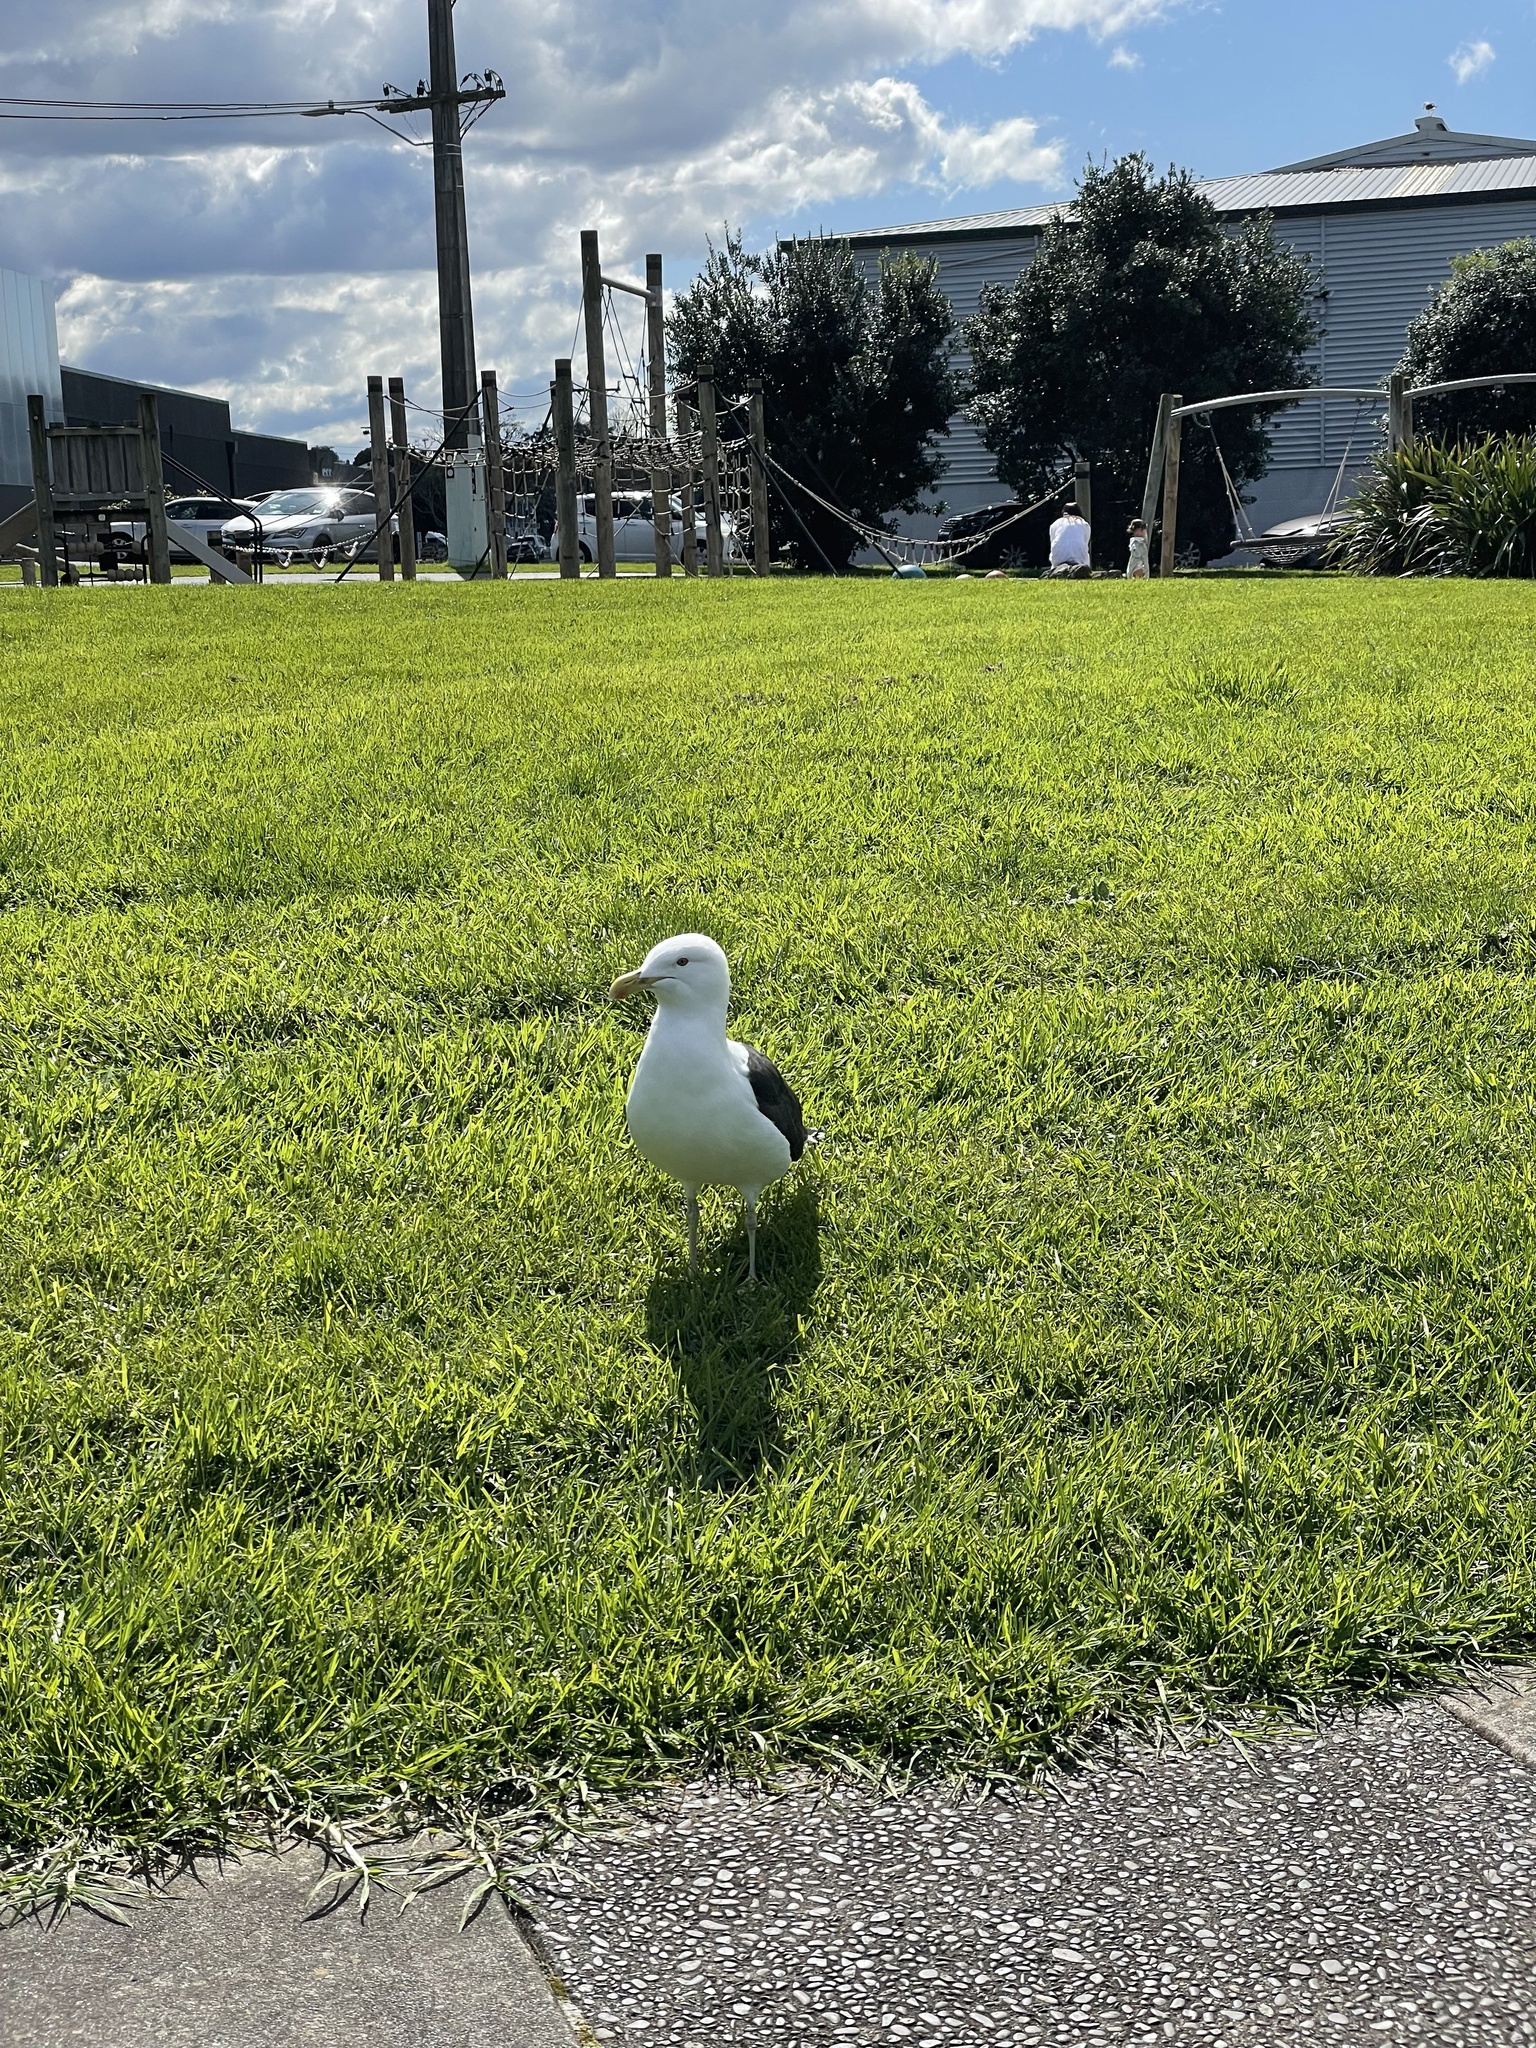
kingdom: Animalia
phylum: Chordata
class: Aves
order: Charadriiformes
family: Laridae
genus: Larus
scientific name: Larus dominicanus
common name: Kelp gull
